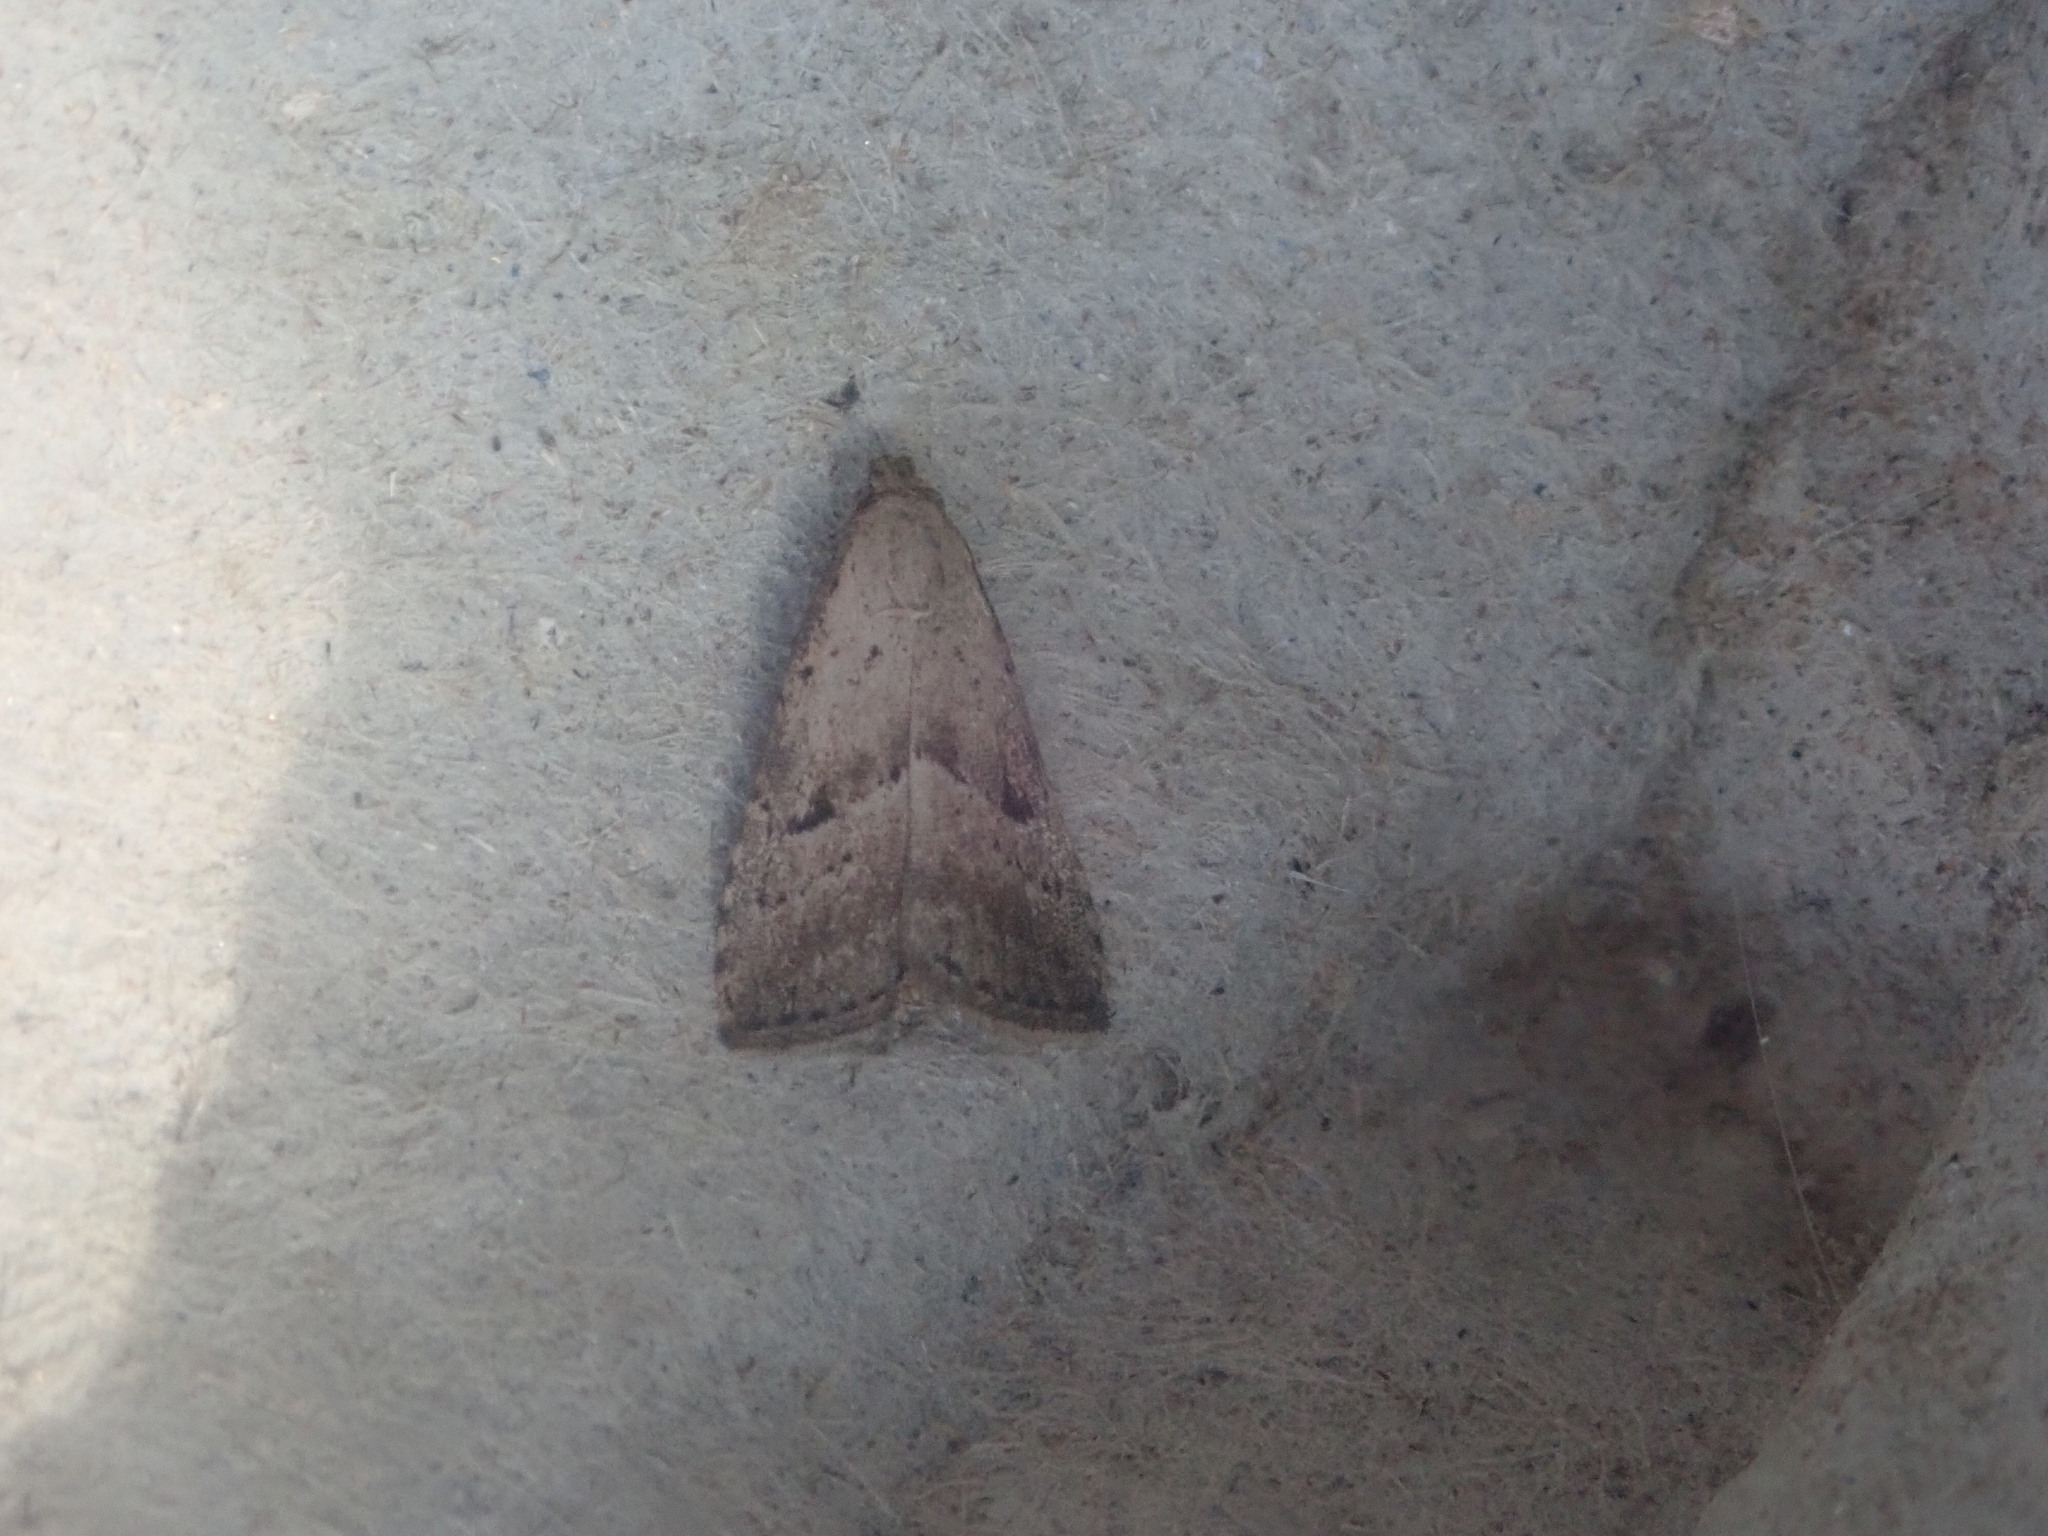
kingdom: Animalia
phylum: Arthropoda
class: Insecta
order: Lepidoptera
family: Erebidae
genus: Hypenodes
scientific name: Hypenodes fractilinea
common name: Broken-line hypenodes moth
